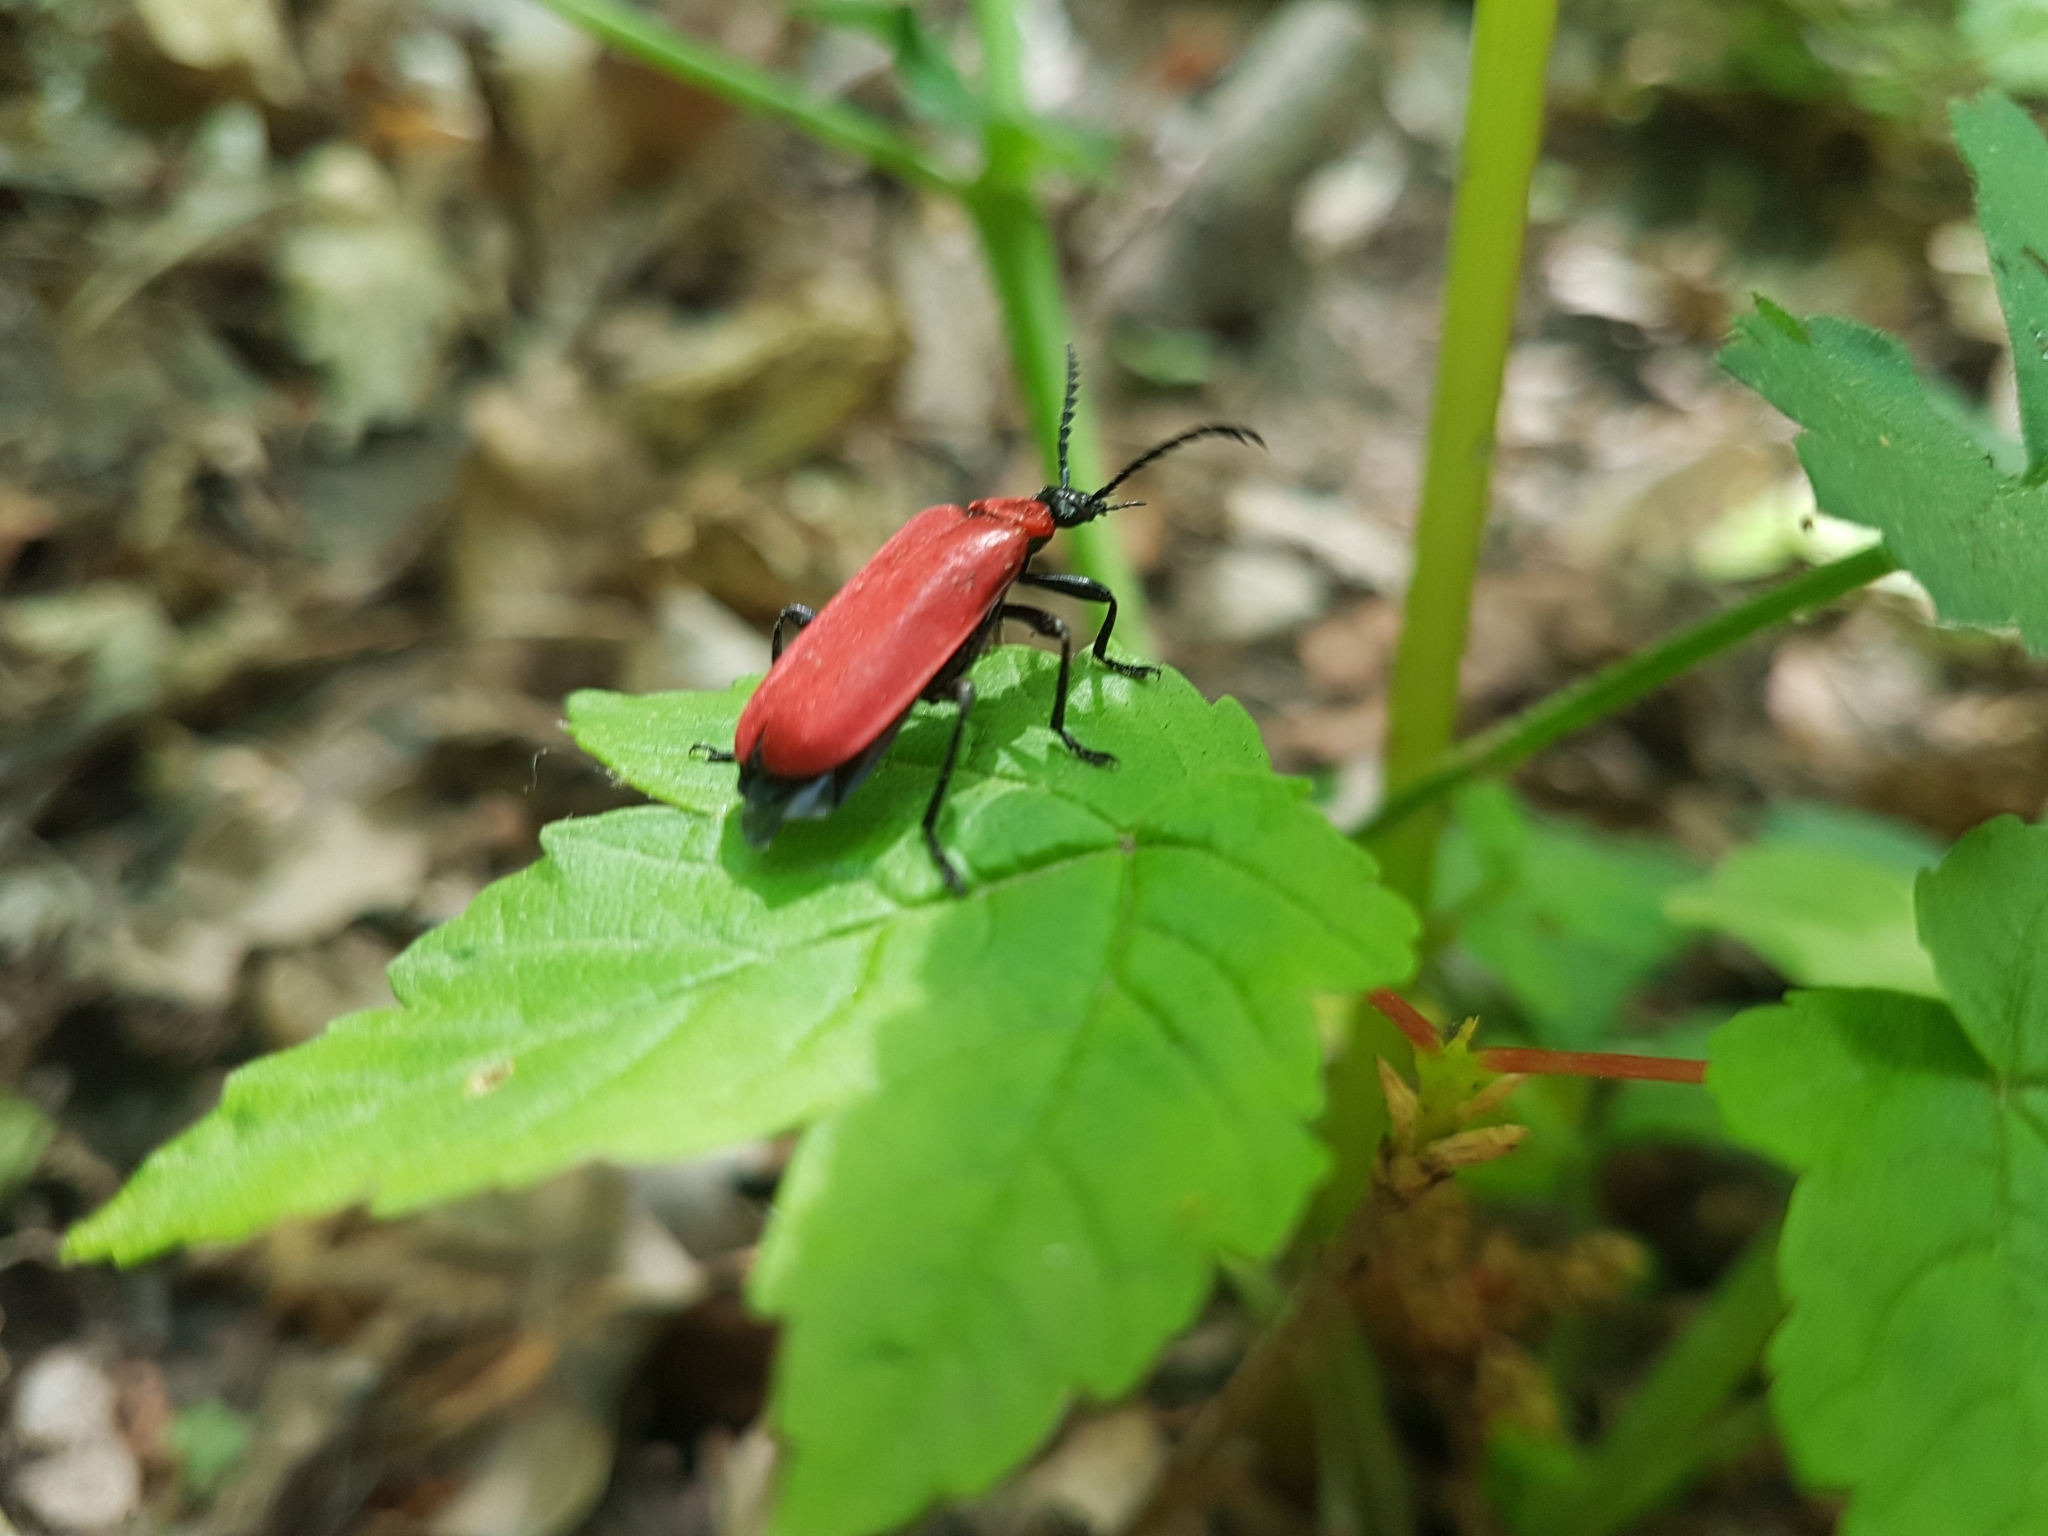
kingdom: Animalia
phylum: Arthropoda
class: Insecta
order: Coleoptera
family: Pyrochroidae
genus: Pyrochroa
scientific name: Pyrochroa coccinea
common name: Black-headed cardinal beetle
